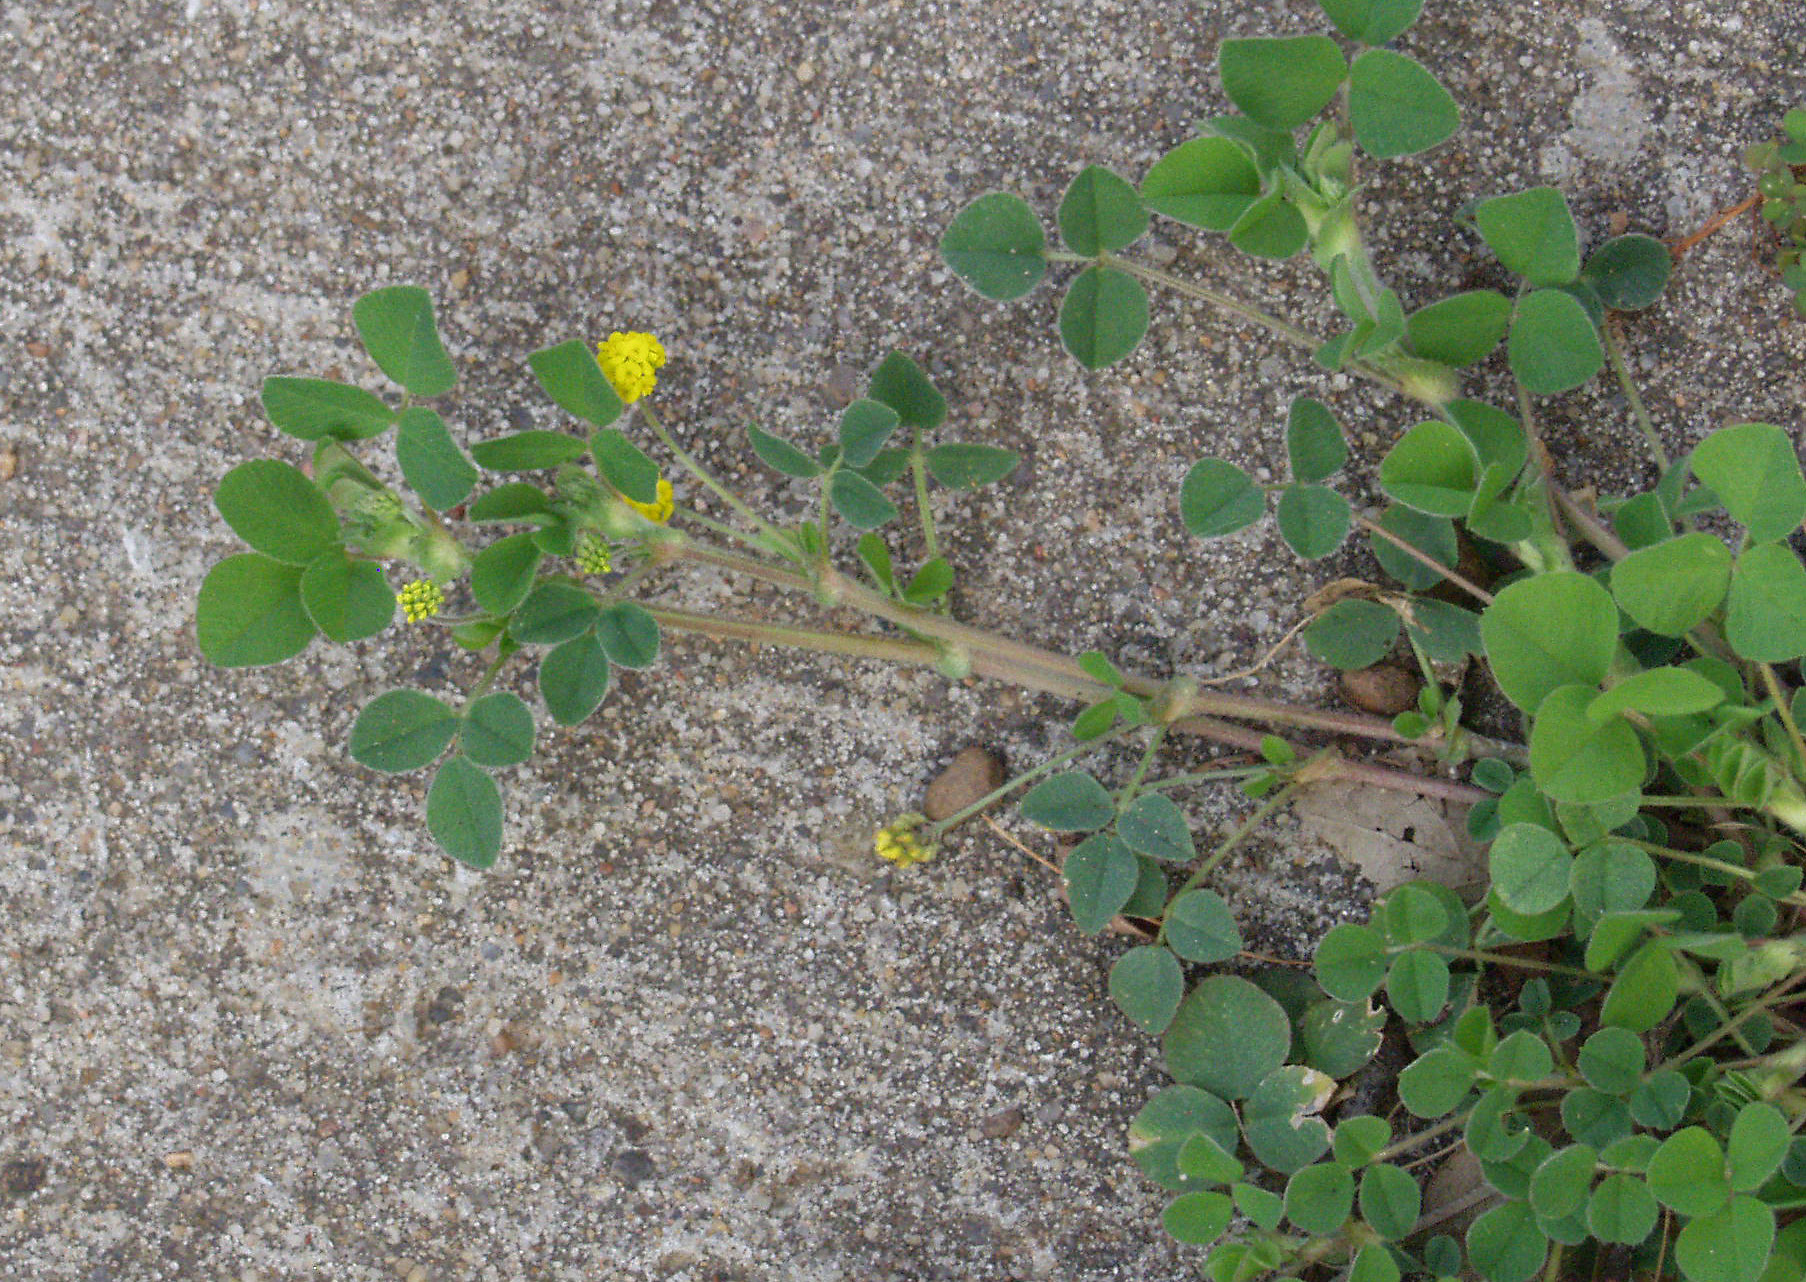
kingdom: Plantae
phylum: Tracheophyta
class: Magnoliopsida
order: Fabales
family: Fabaceae
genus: Medicago
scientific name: Medicago lupulina
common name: Black medick
